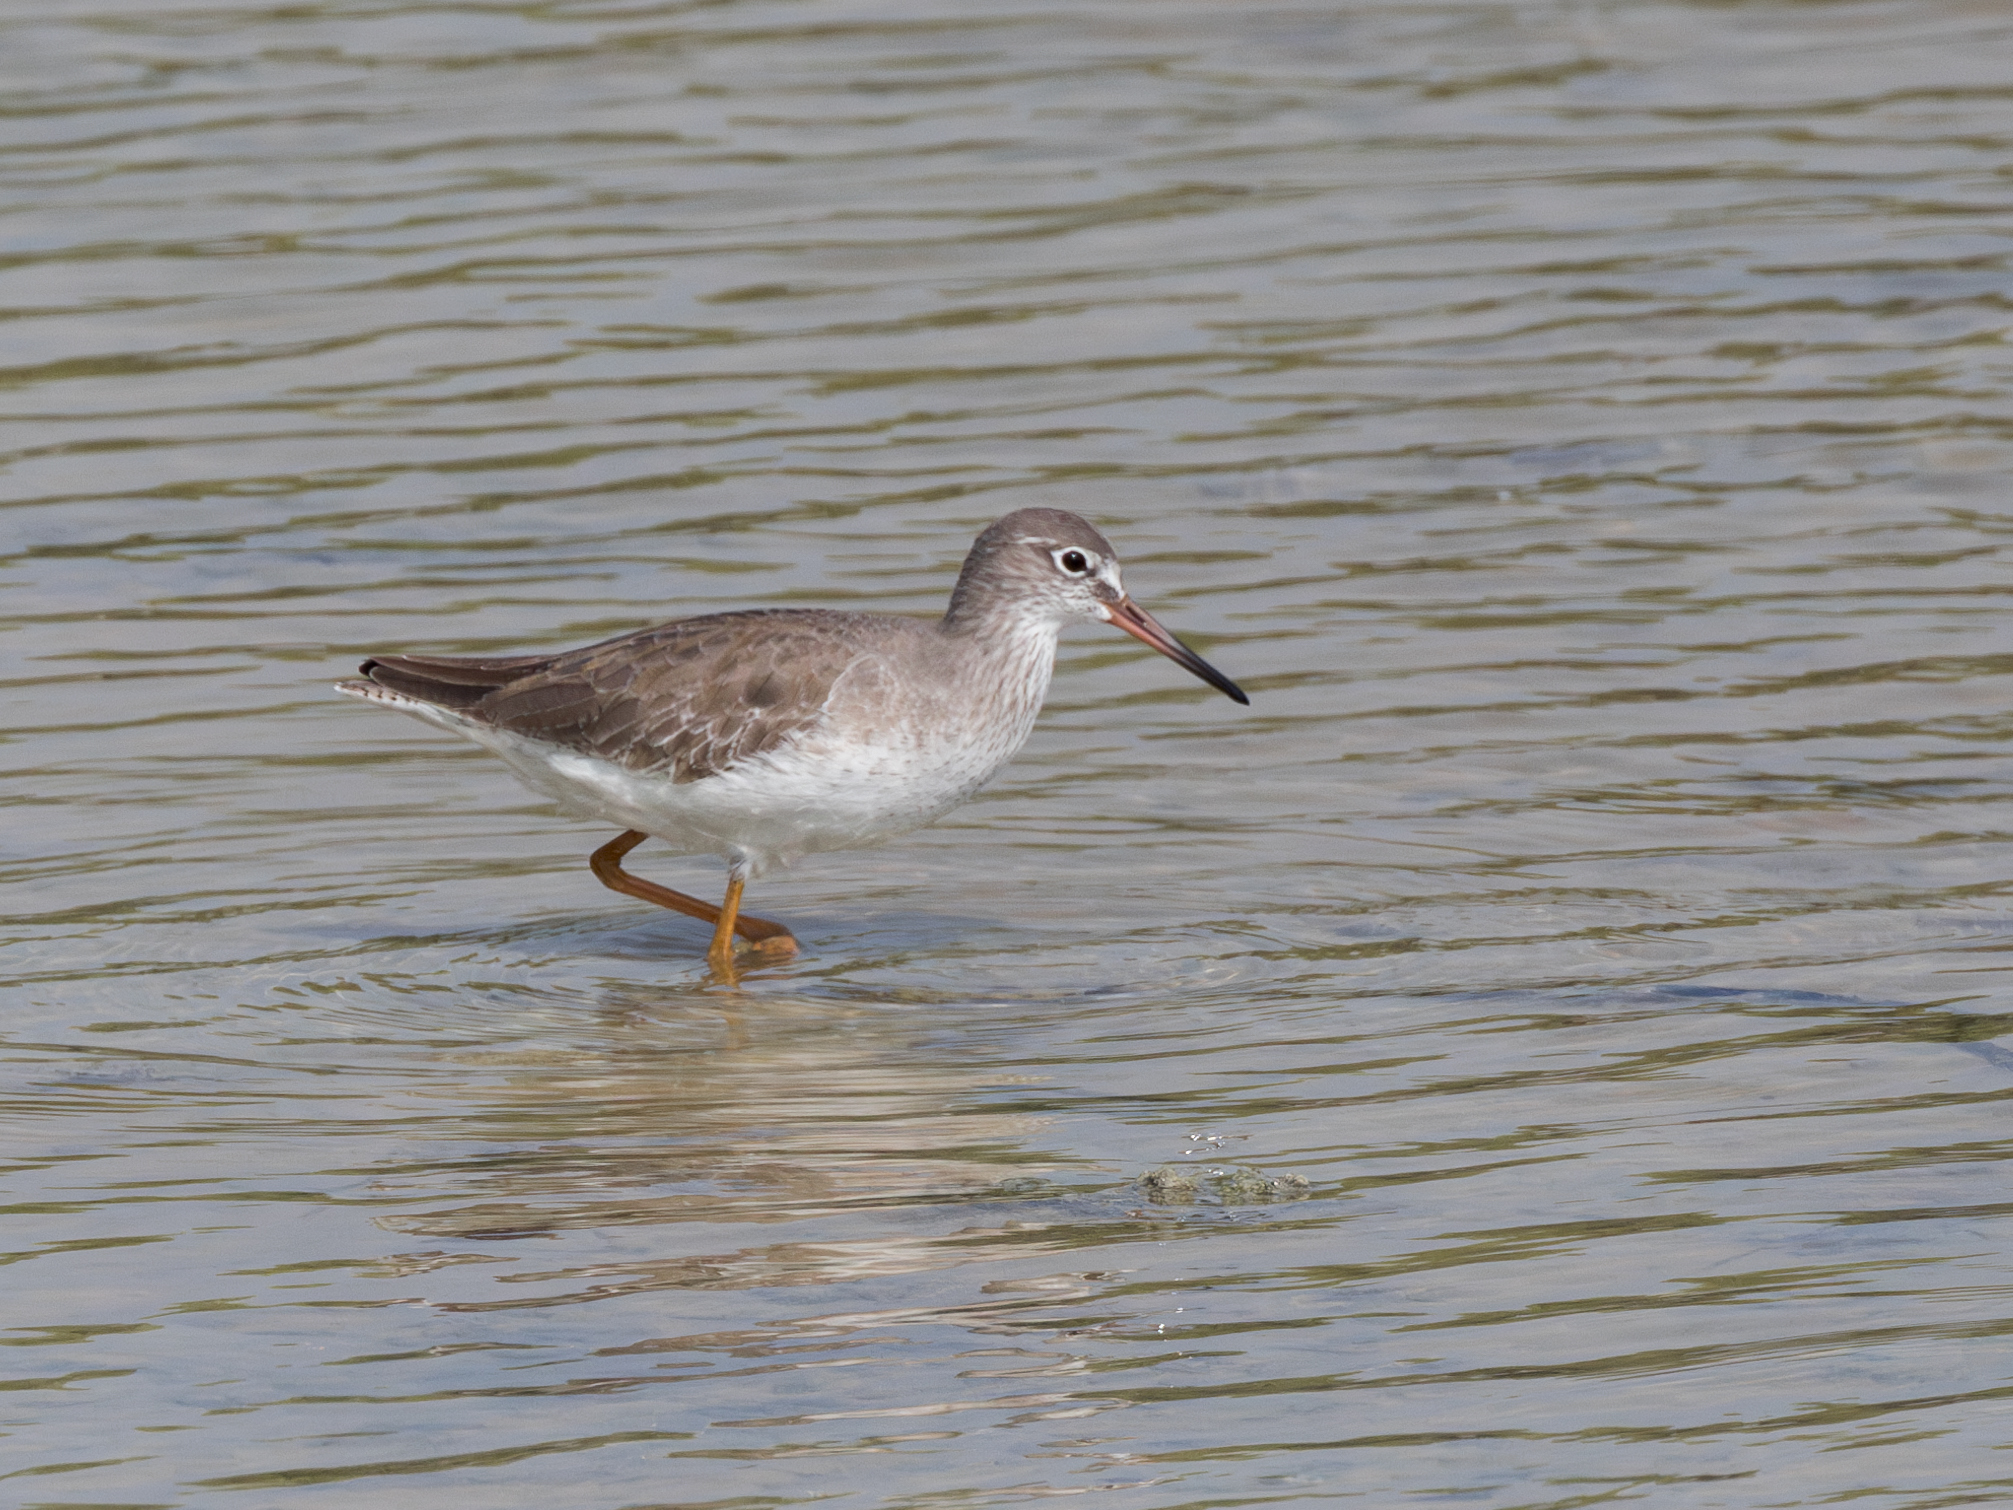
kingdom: Animalia
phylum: Chordata
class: Aves
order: Charadriiformes
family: Scolopacidae
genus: Tringa
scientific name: Tringa totanus
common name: Common redshank
